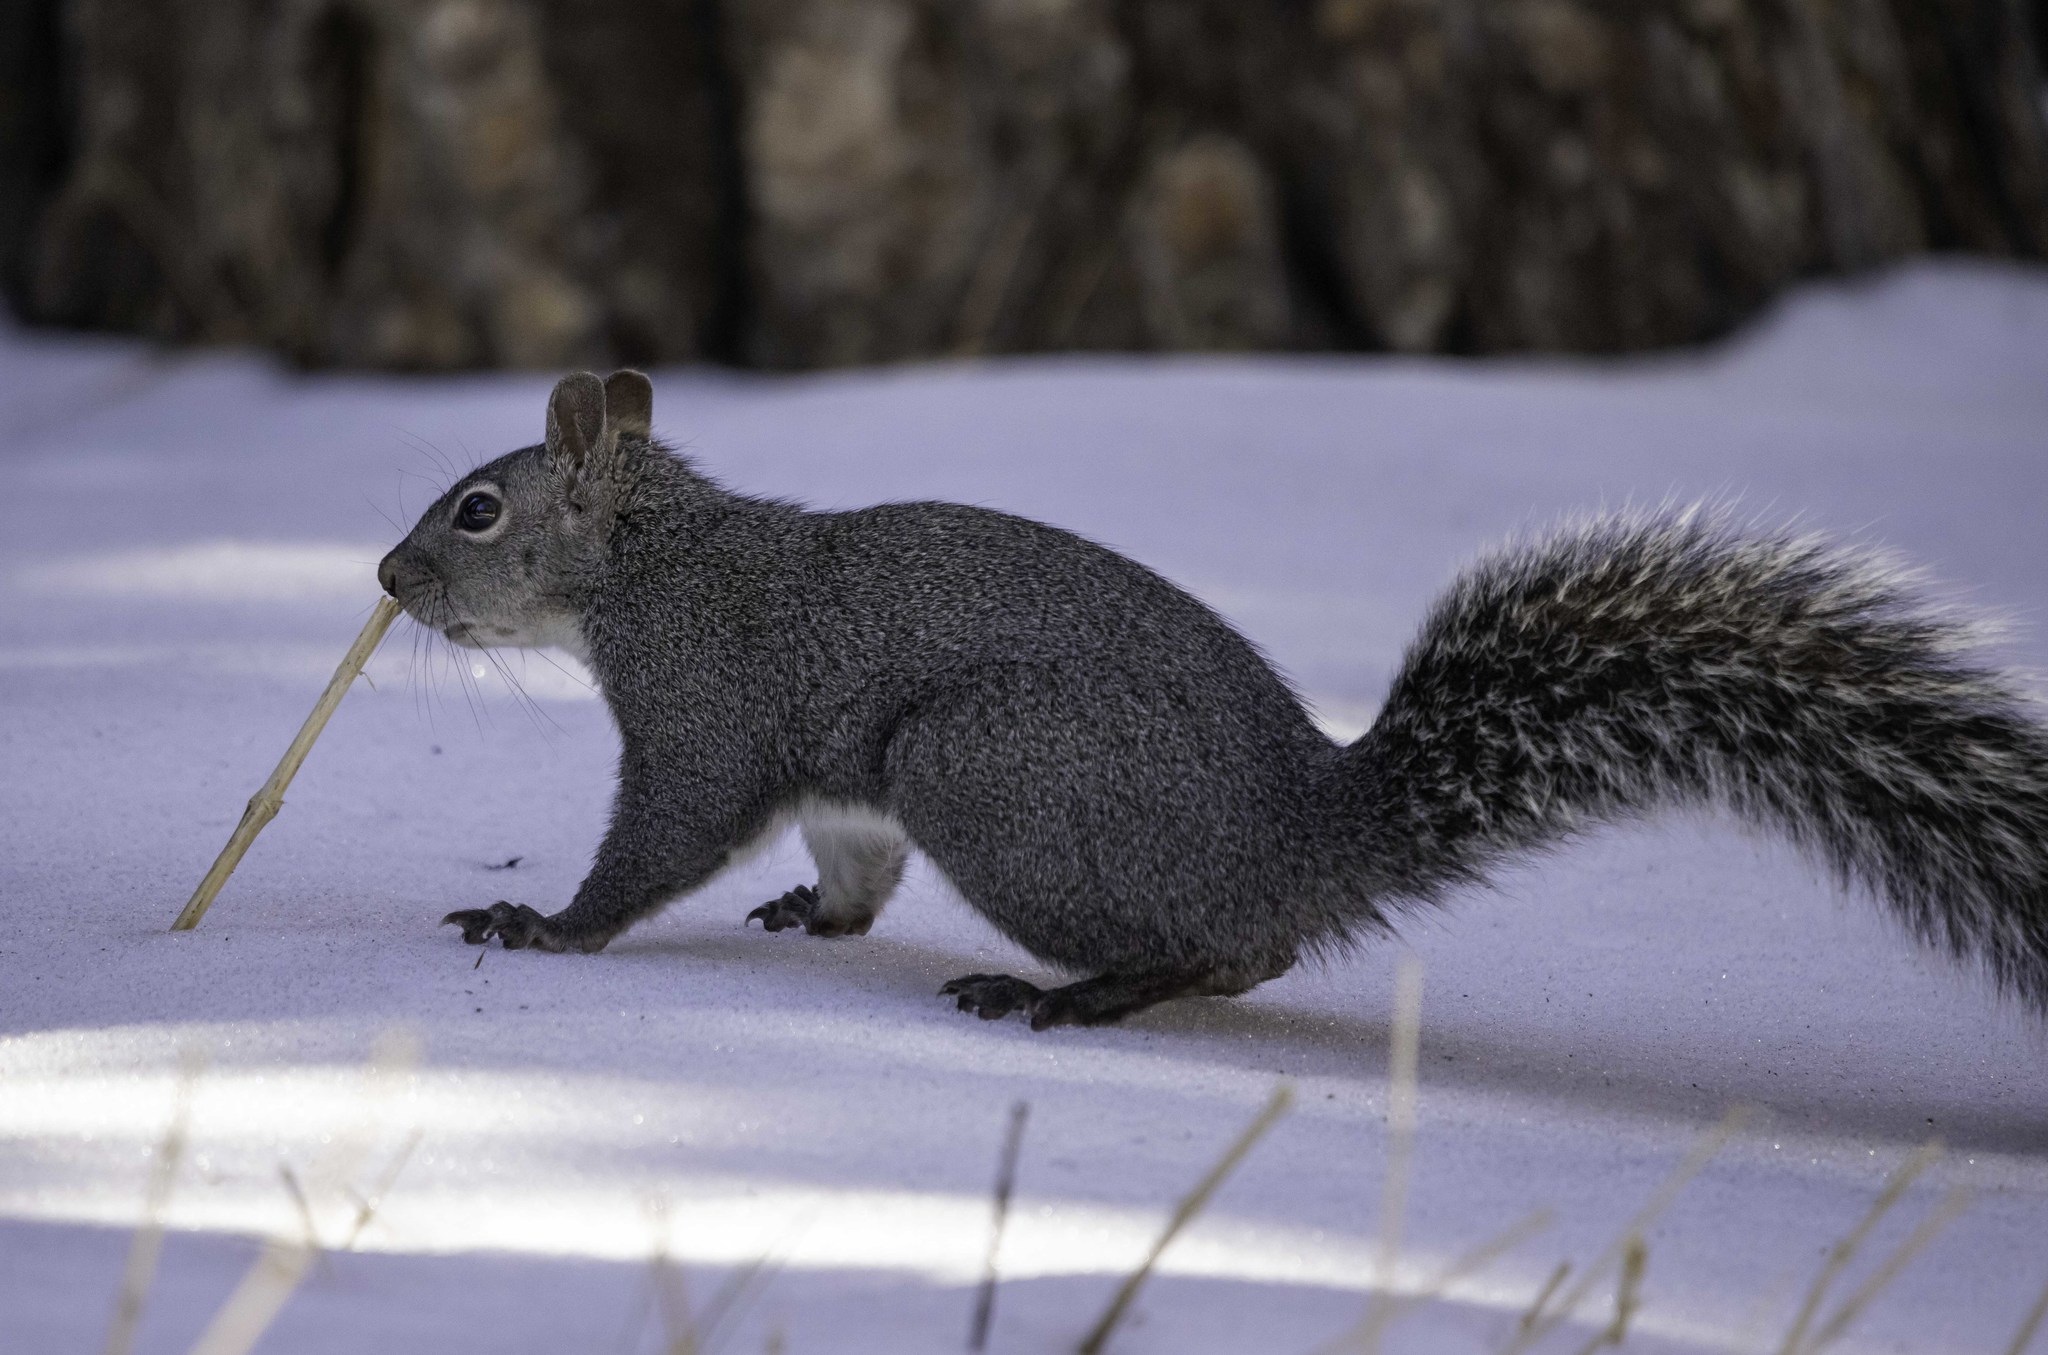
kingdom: Animalia
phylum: Chordata
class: Mammalia
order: Rodentia
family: Sciuridae
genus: Sciurus
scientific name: Sciurus griseus
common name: Western gray squirrel
